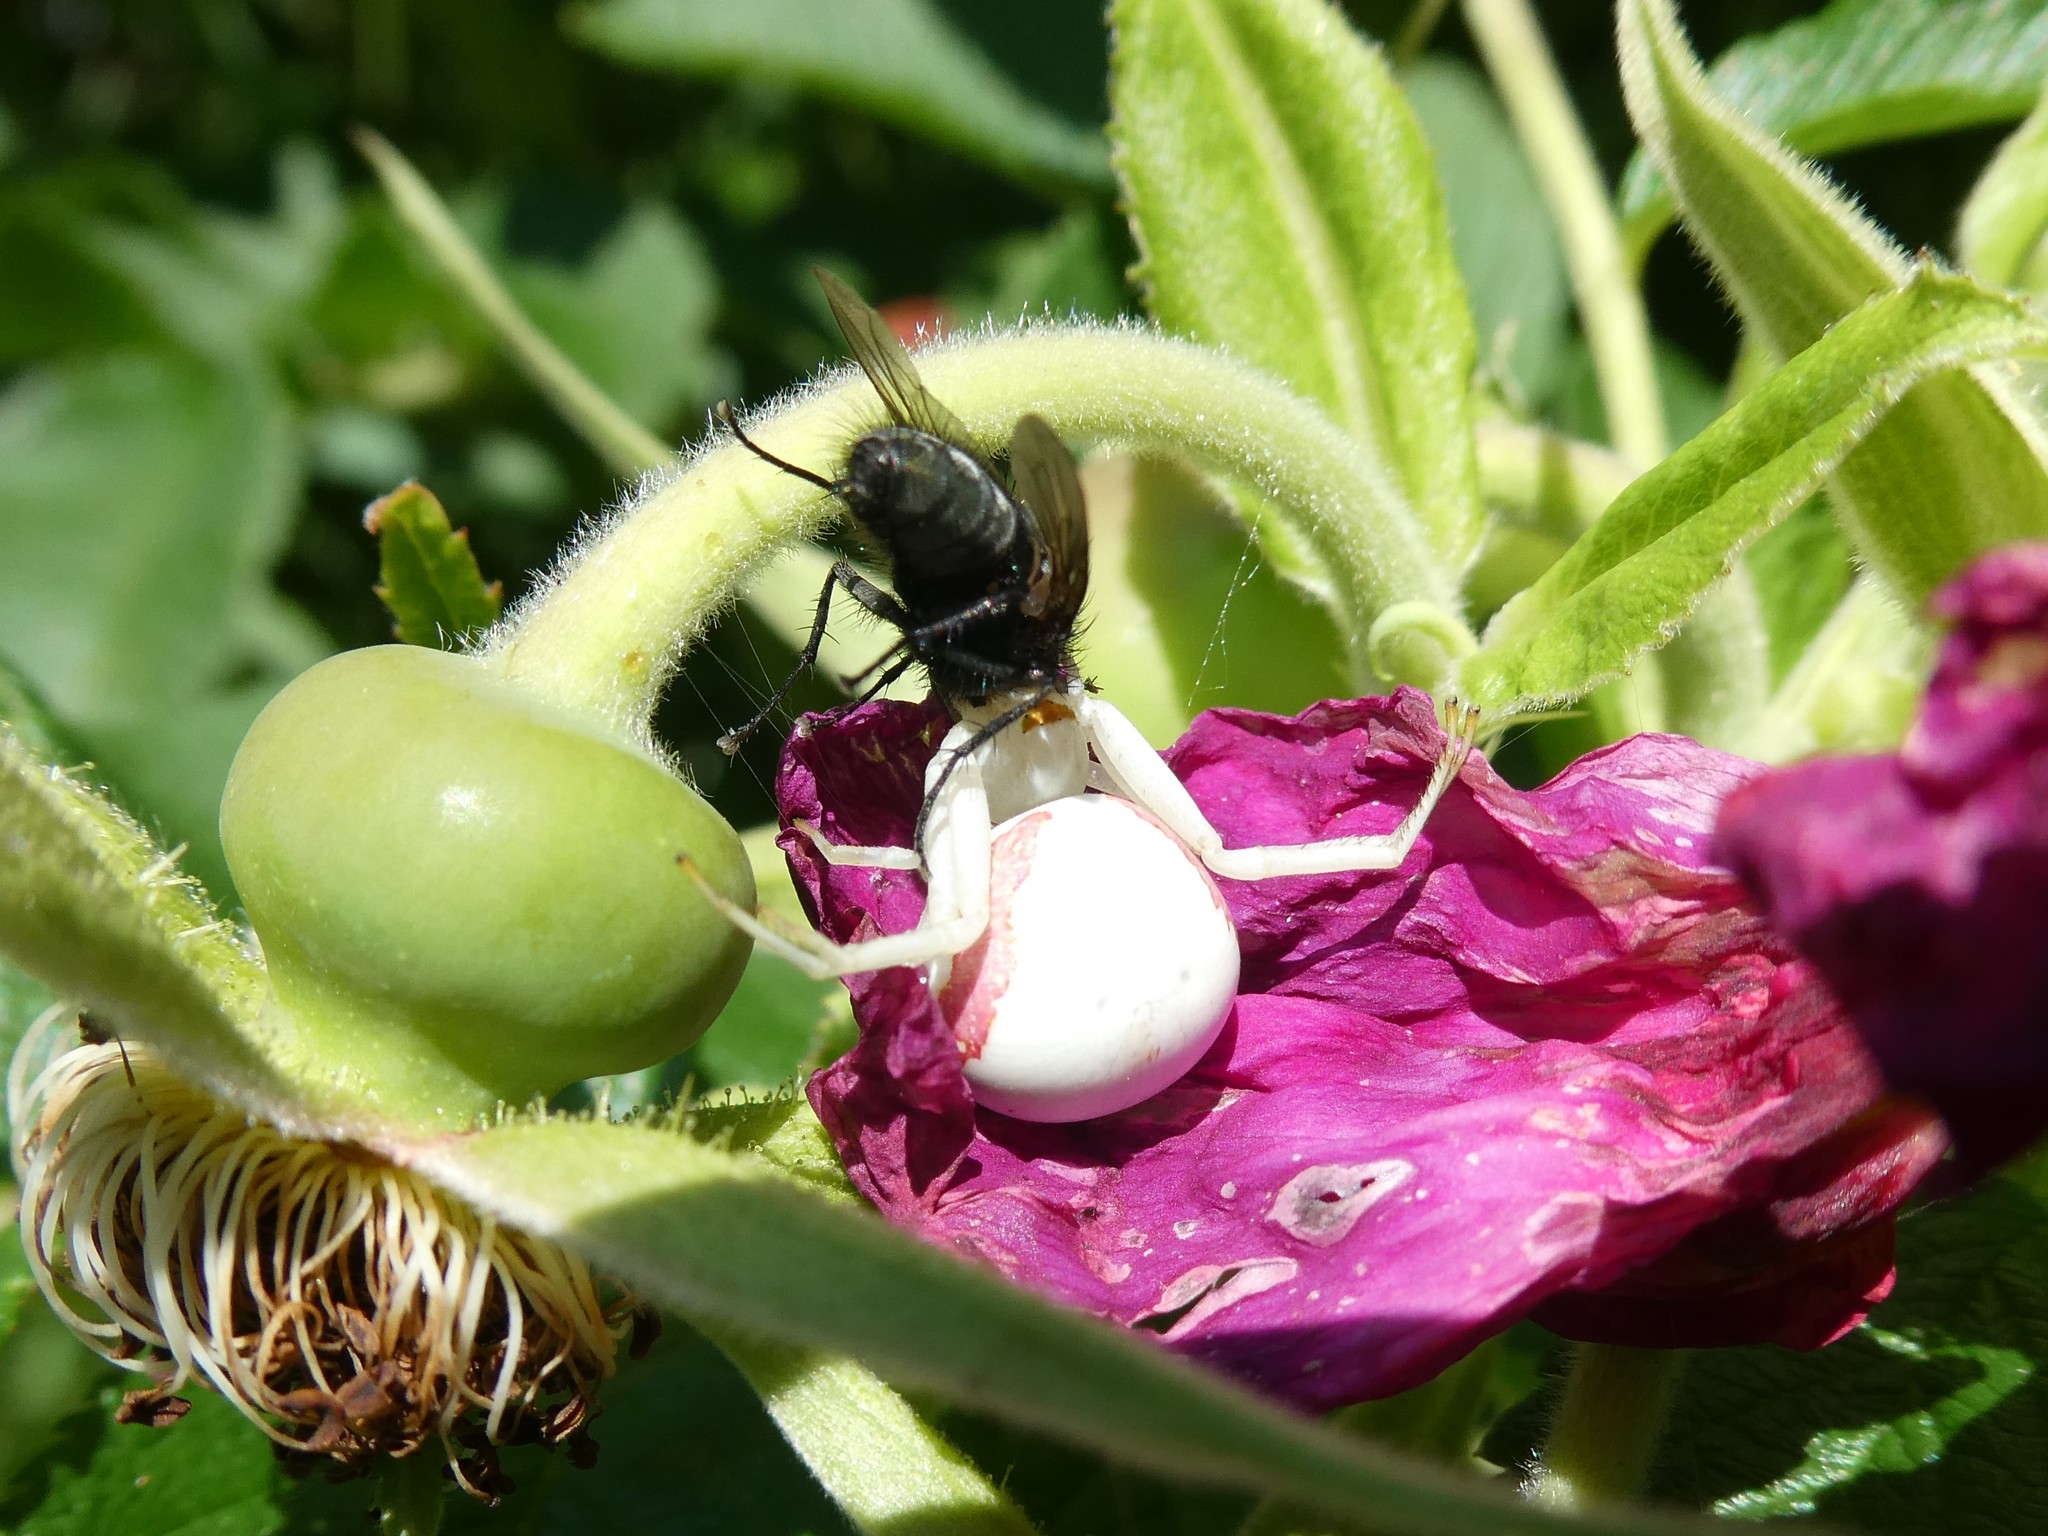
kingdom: Animalia
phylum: Arthropoda
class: Arachnida
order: Araneae
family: Thomisidae
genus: Misumena
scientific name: Misumena vatia
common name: Goldenrod crab spider
